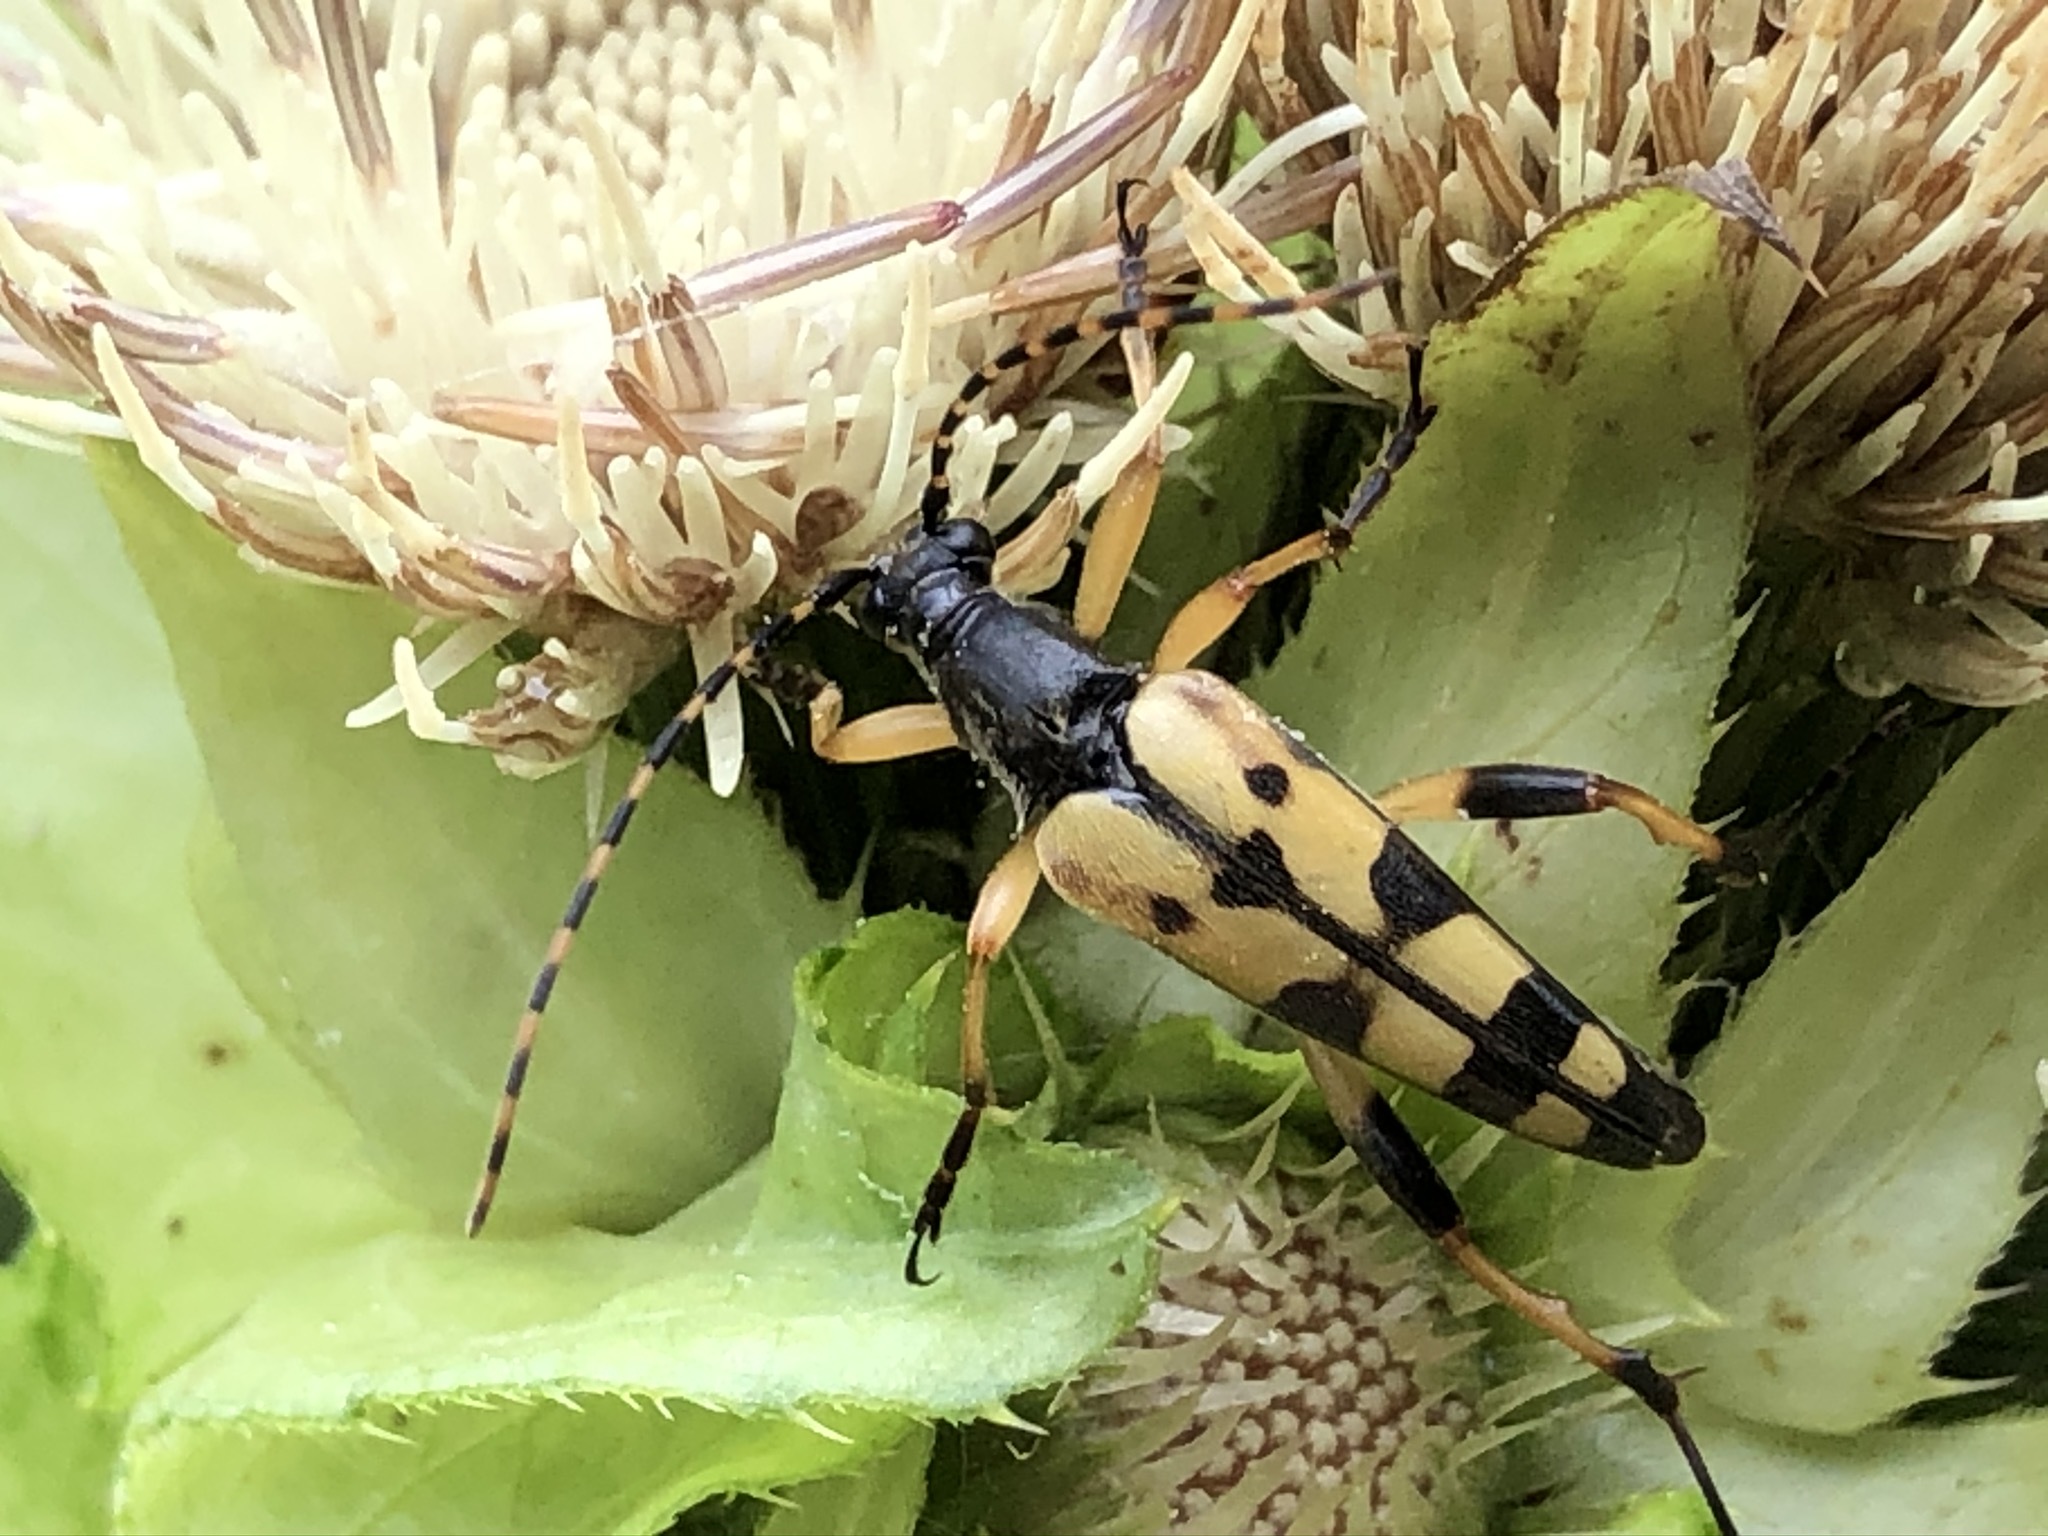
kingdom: Animalia
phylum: Arthropoda
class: Insecta
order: Coleoptera
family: Cerambycidae
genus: Rutpela
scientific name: Rutpela maculata
